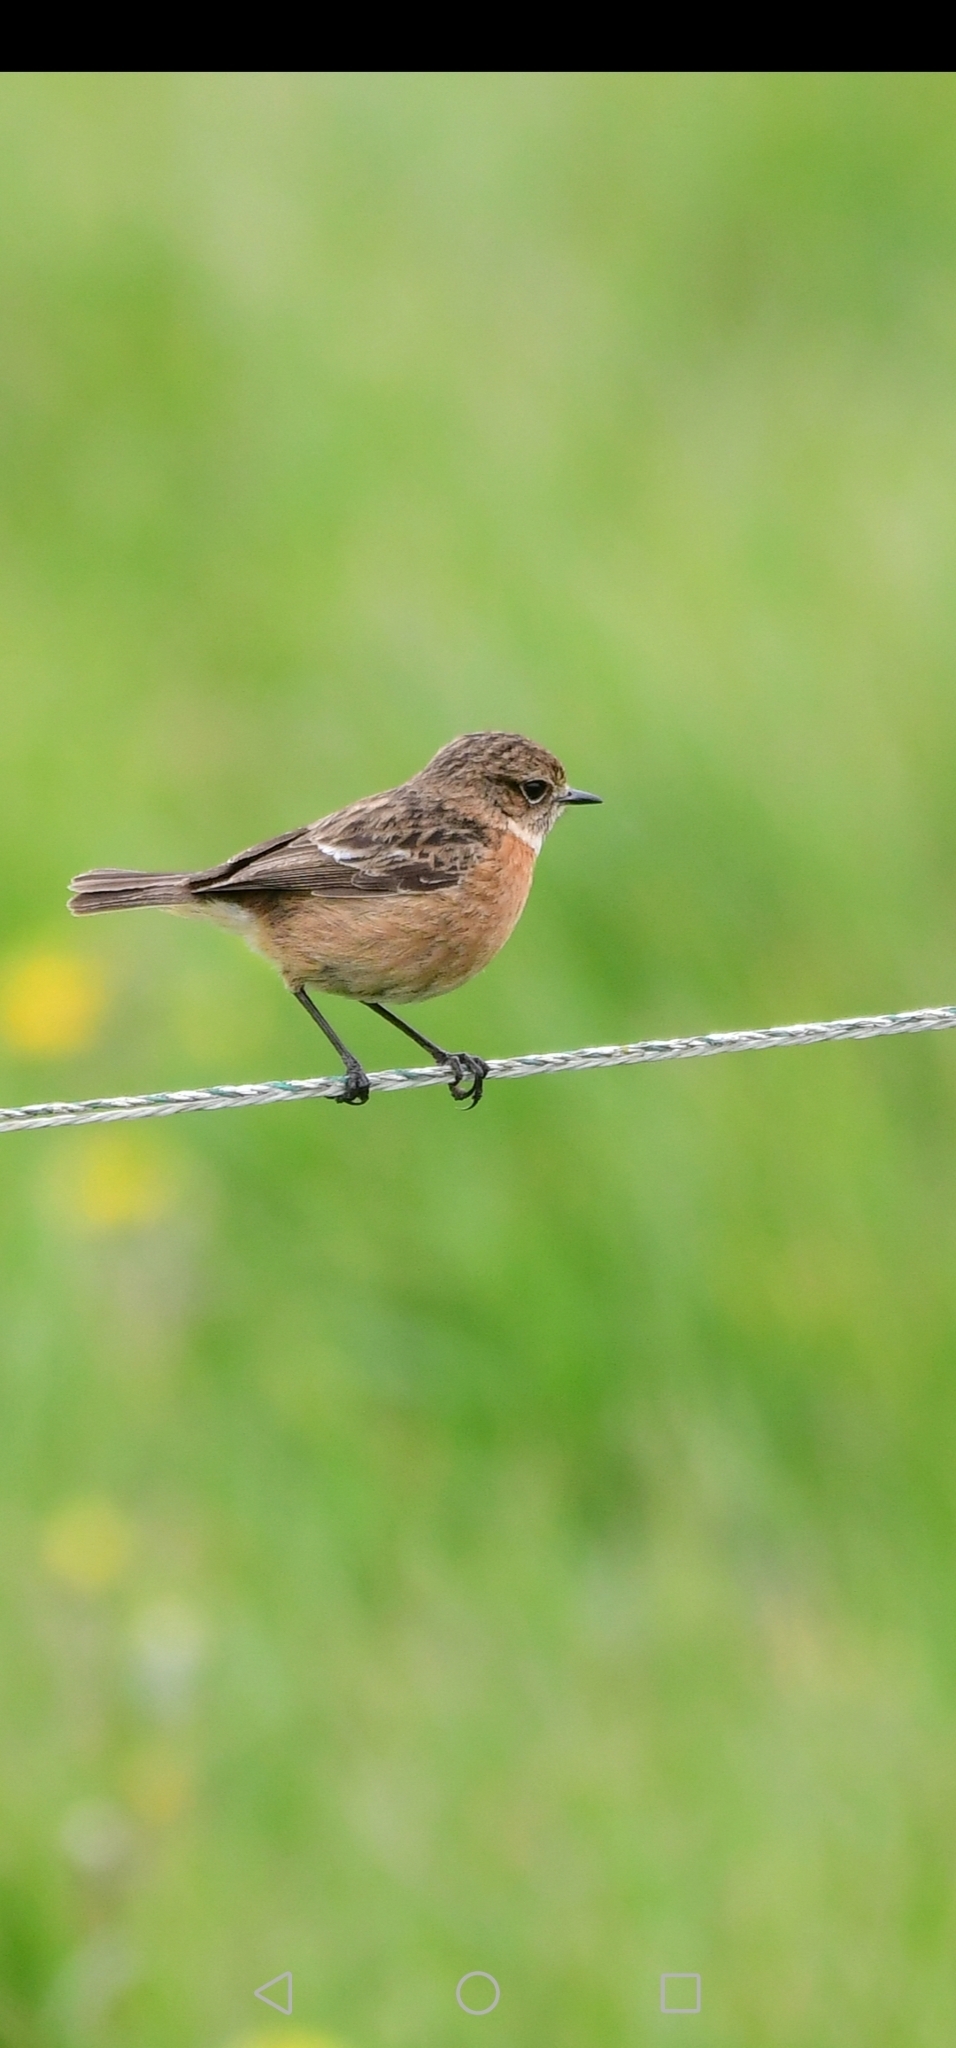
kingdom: Animalia
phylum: Chordata
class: Aves
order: Passeriformes
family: Muscicapidae
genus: Saxicola
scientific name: Saxicola rubicola
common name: European stonechat
